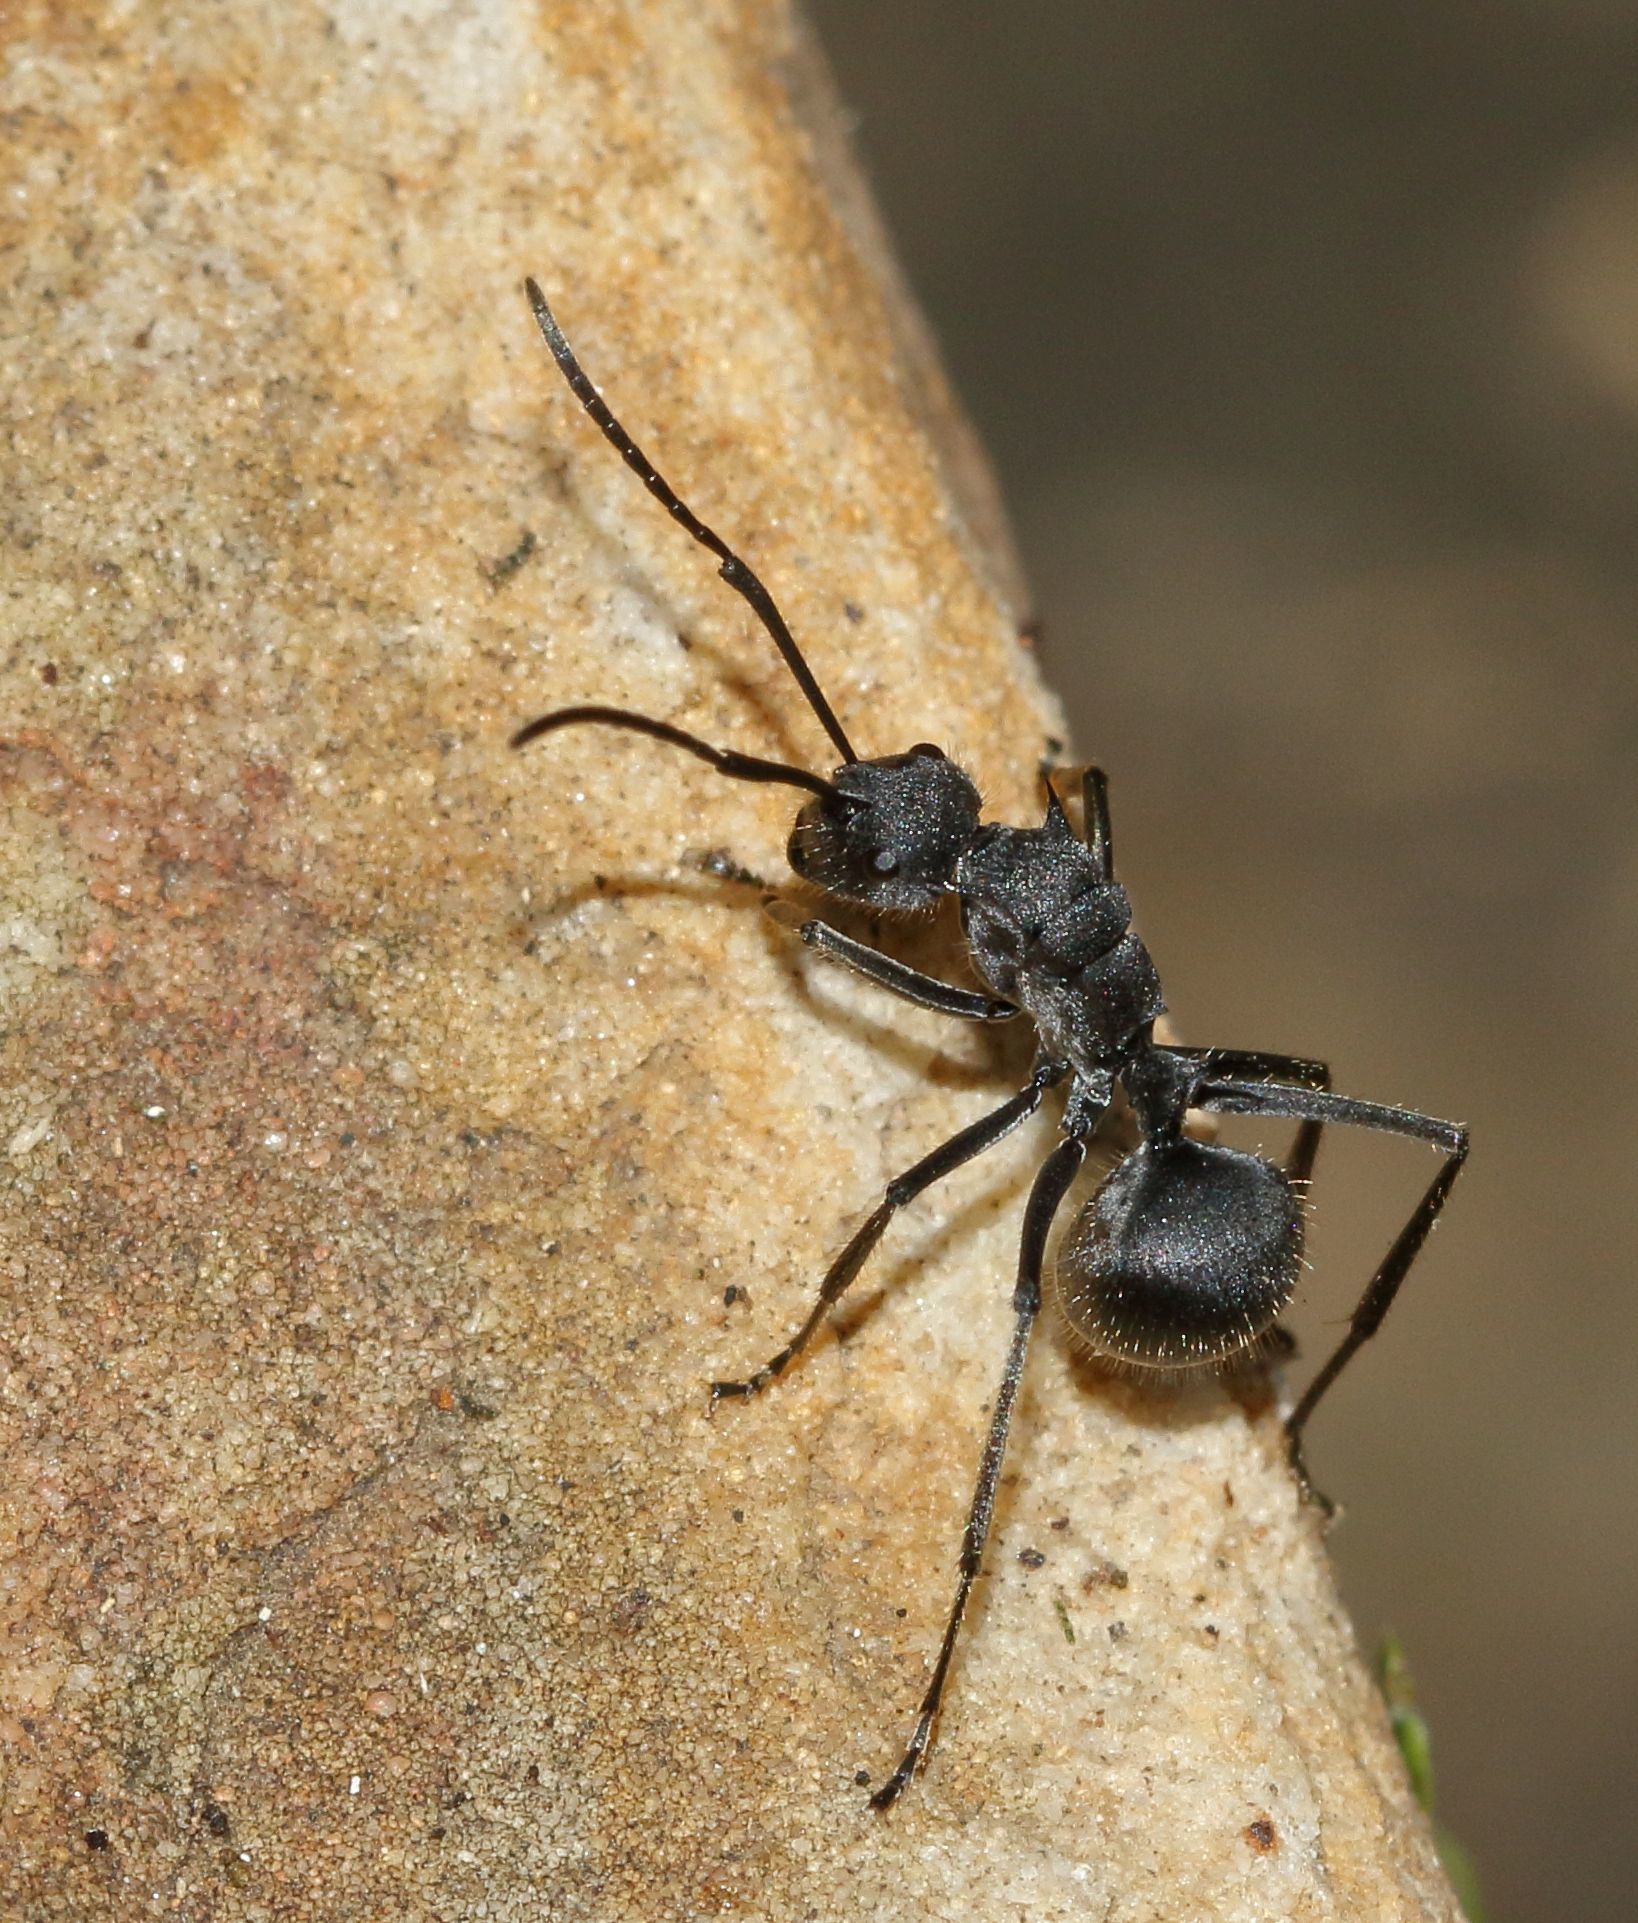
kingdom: Animalia
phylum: Arthropoda
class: Insecta
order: Hymenoptera
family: Formicidae
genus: Polyrhachis
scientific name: Polyrhachis schistacea
